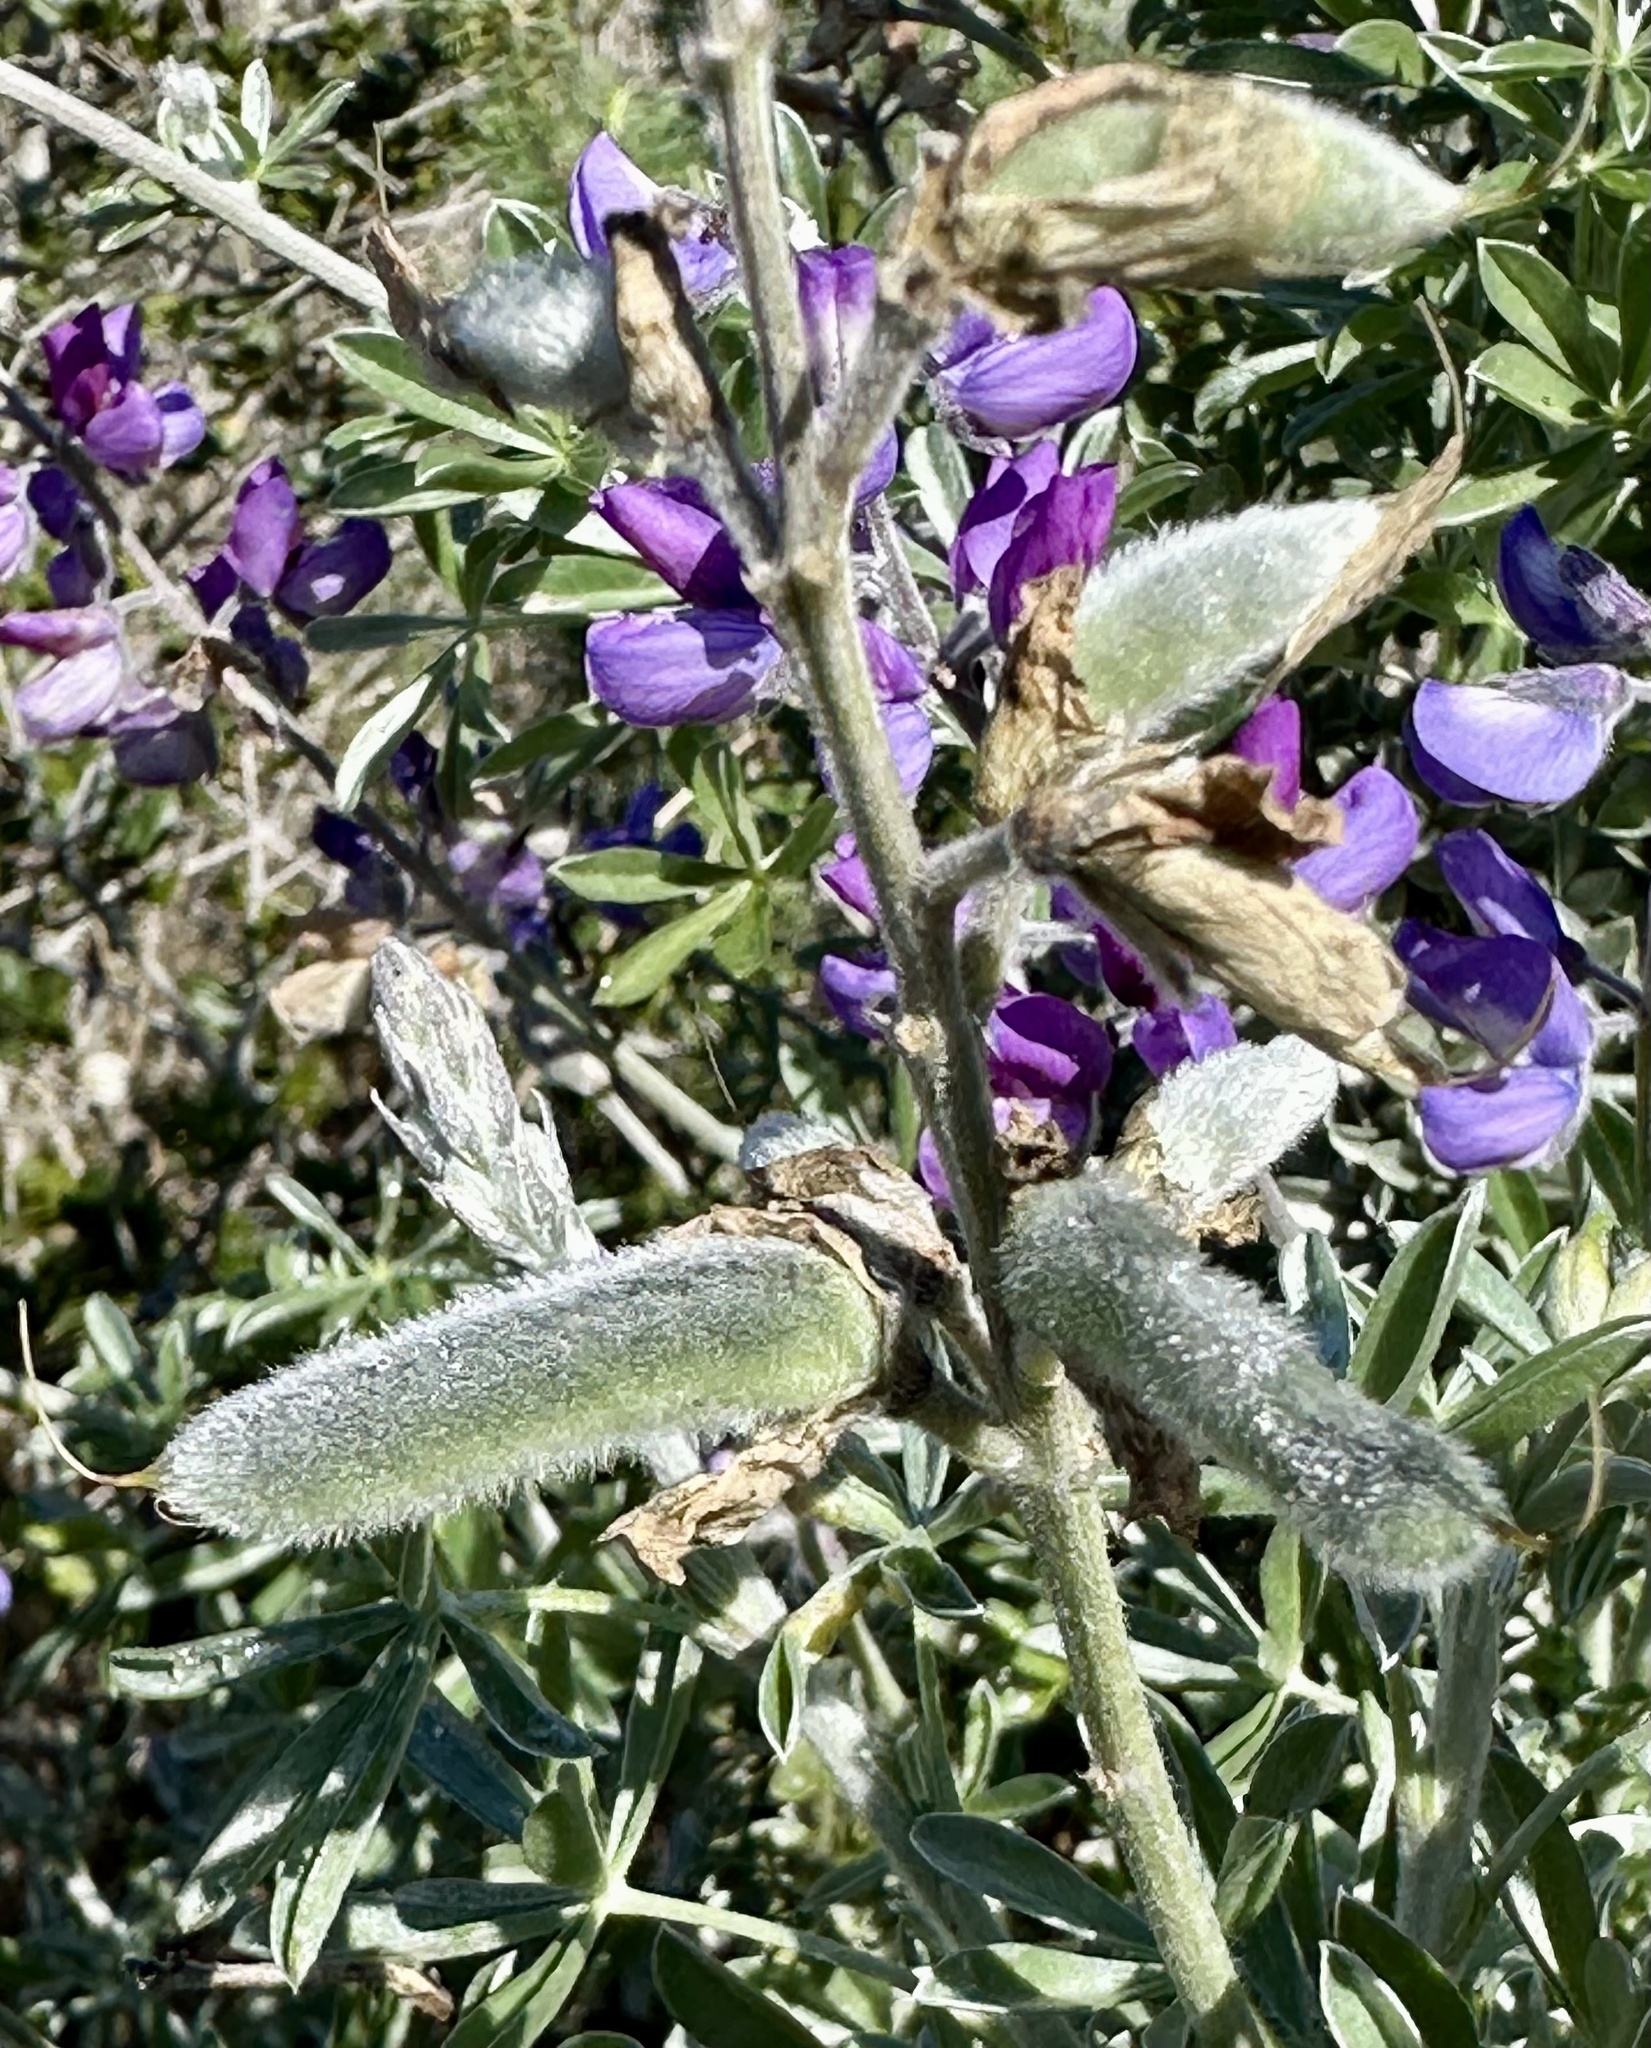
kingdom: Plantae
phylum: Tracheophyta
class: Magnoliopsida
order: Fabales
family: Fabaceae
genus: Lupinus
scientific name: Lupinus chamissonis
